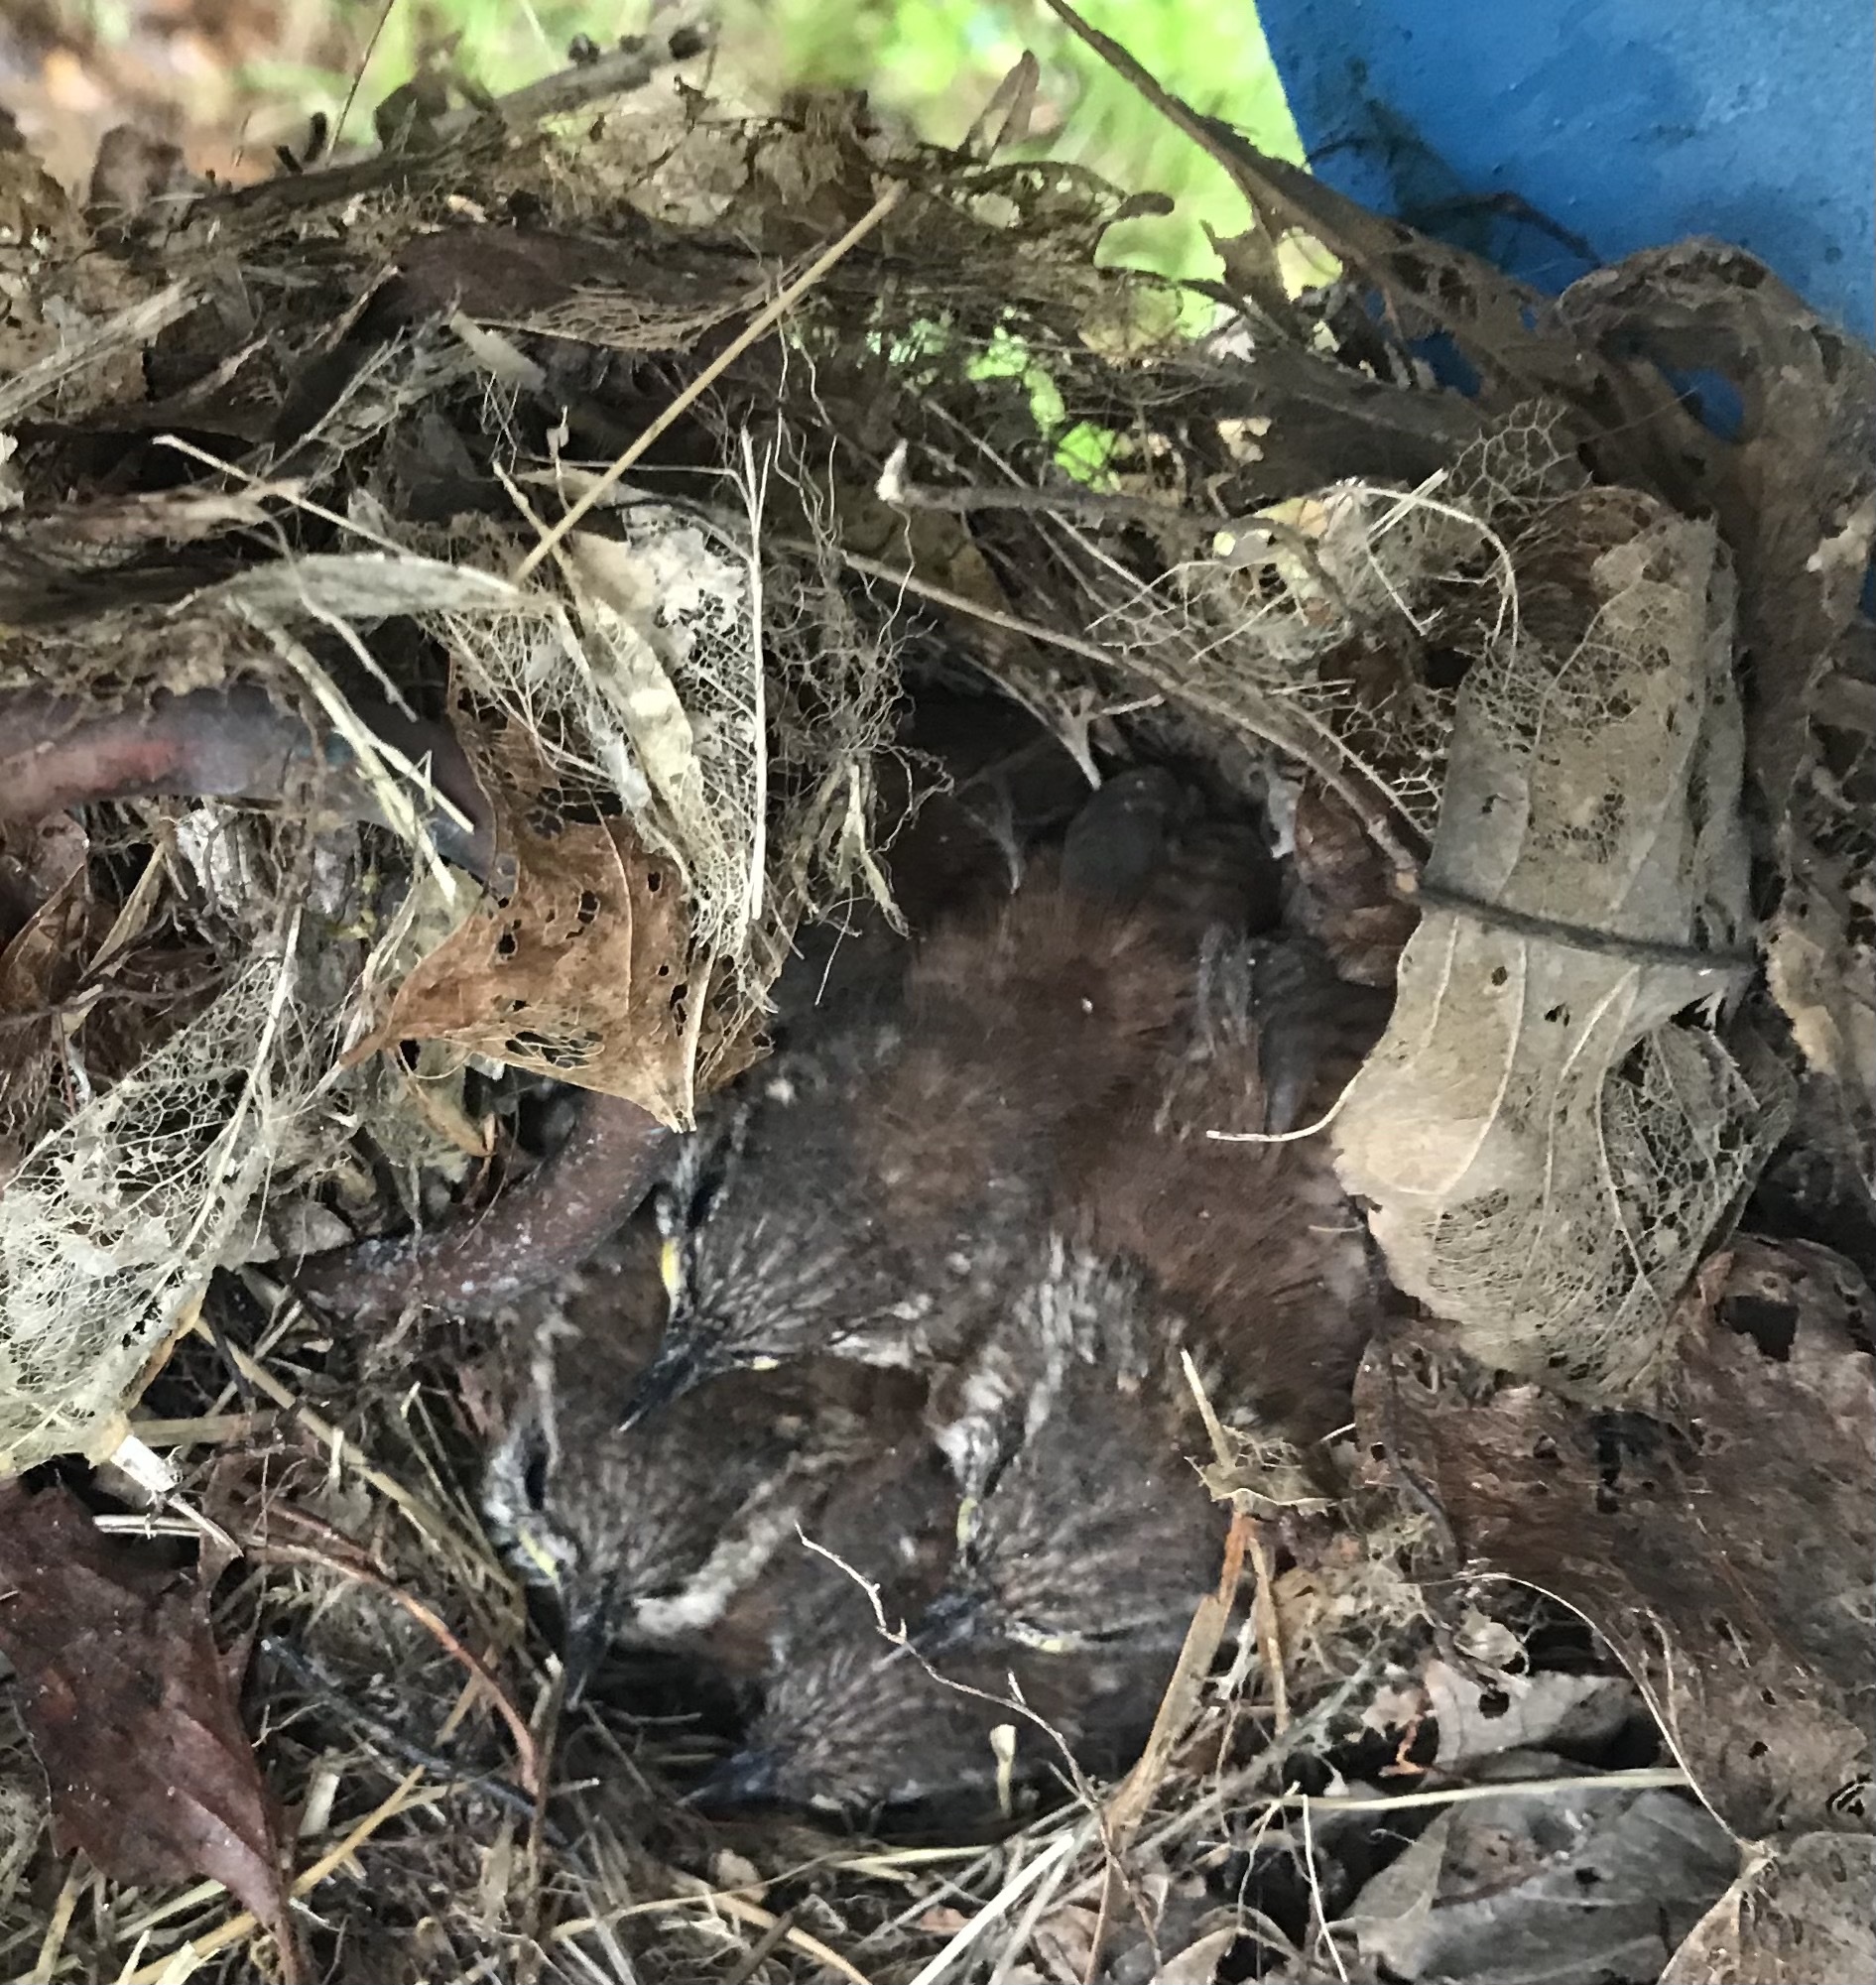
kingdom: Animalia
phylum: Chordata
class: Aves
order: Passeriformes
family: Troglodytidae
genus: Thryothorus
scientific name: Thryothorus ludovicianus
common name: Carolina wren
